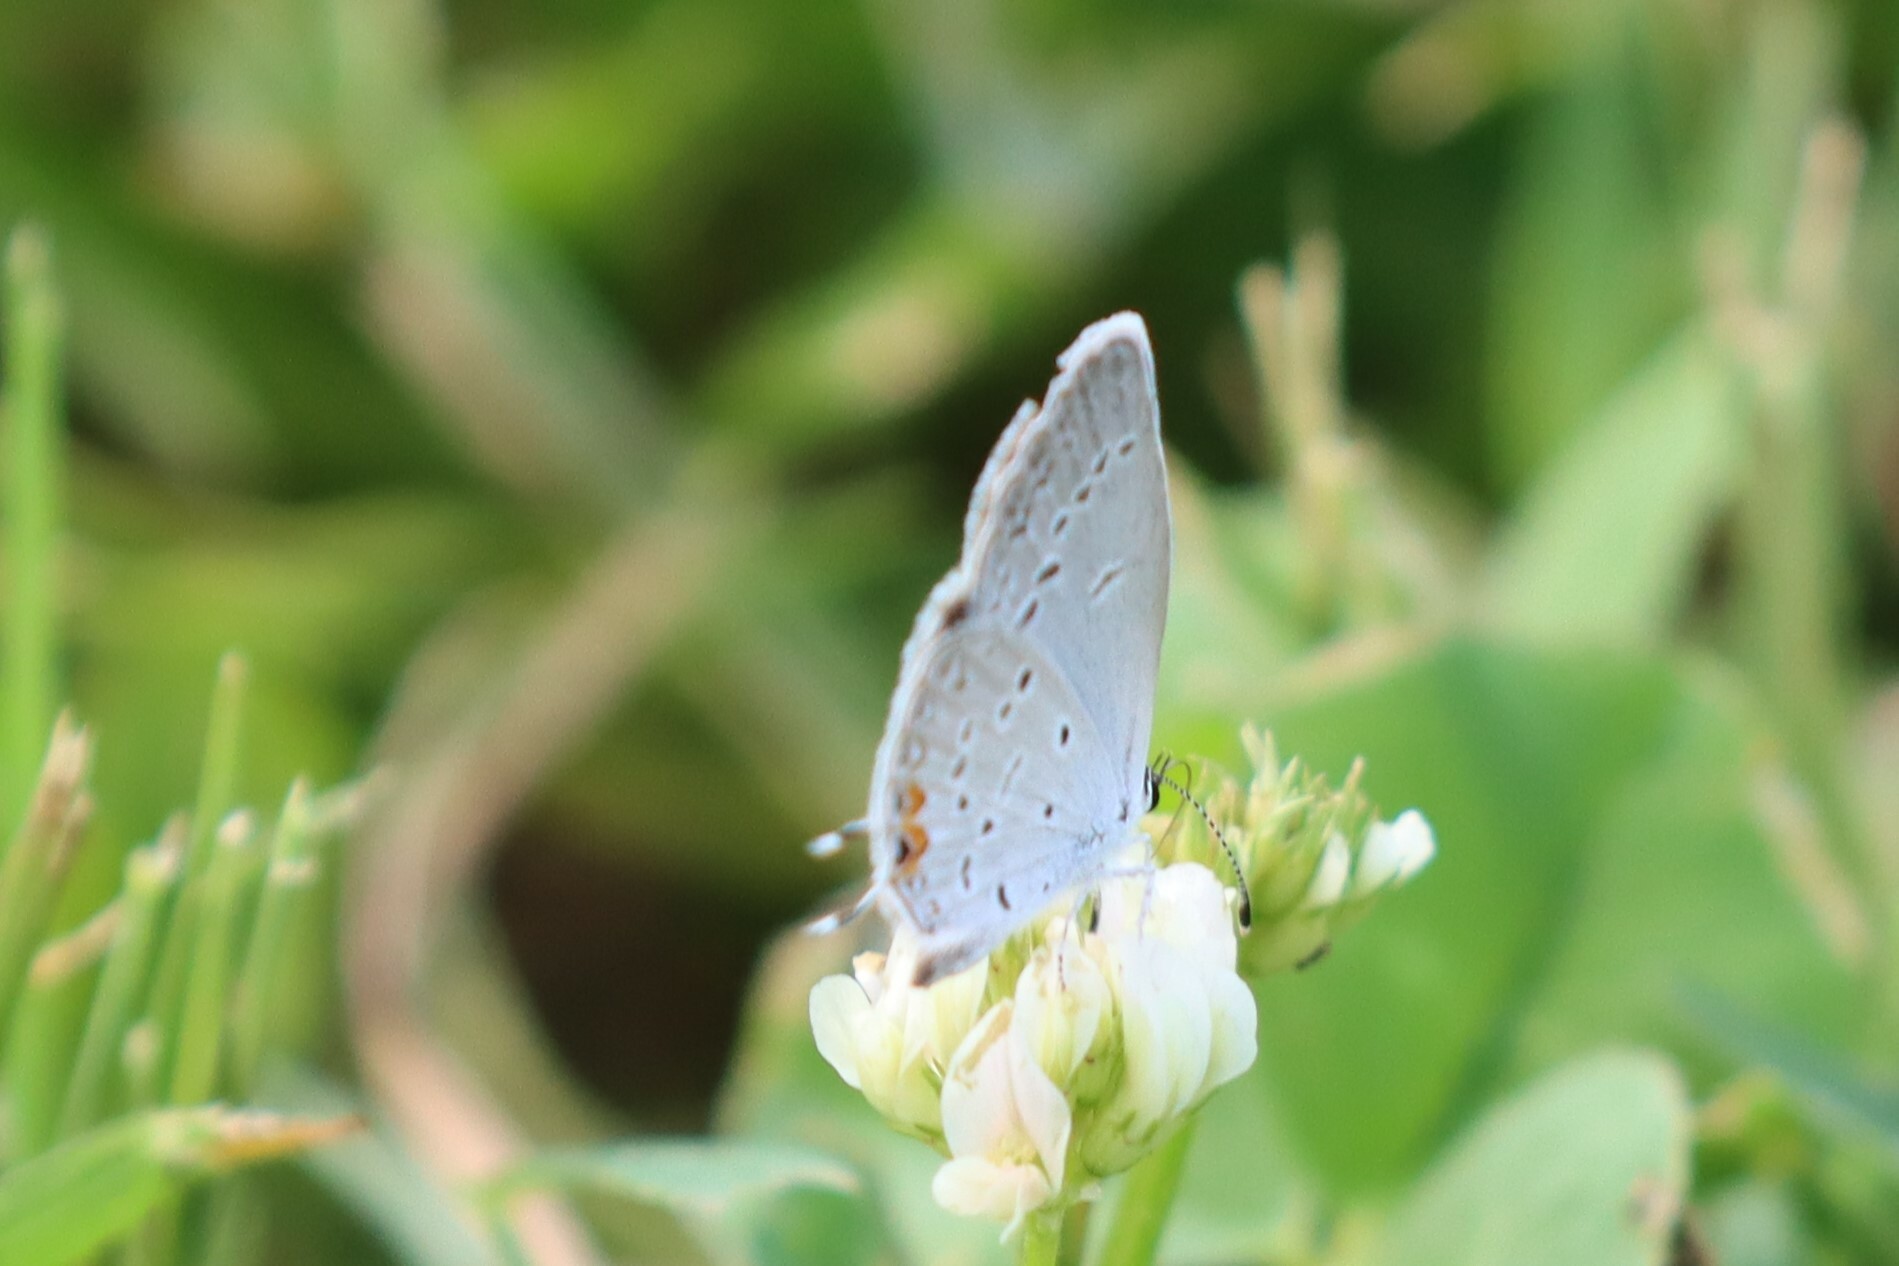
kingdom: Animalia
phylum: Arthropoda
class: Insecta
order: Lepidoptera
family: Lycaenidae
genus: Elkalyce
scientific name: Elkalyce comyntas
